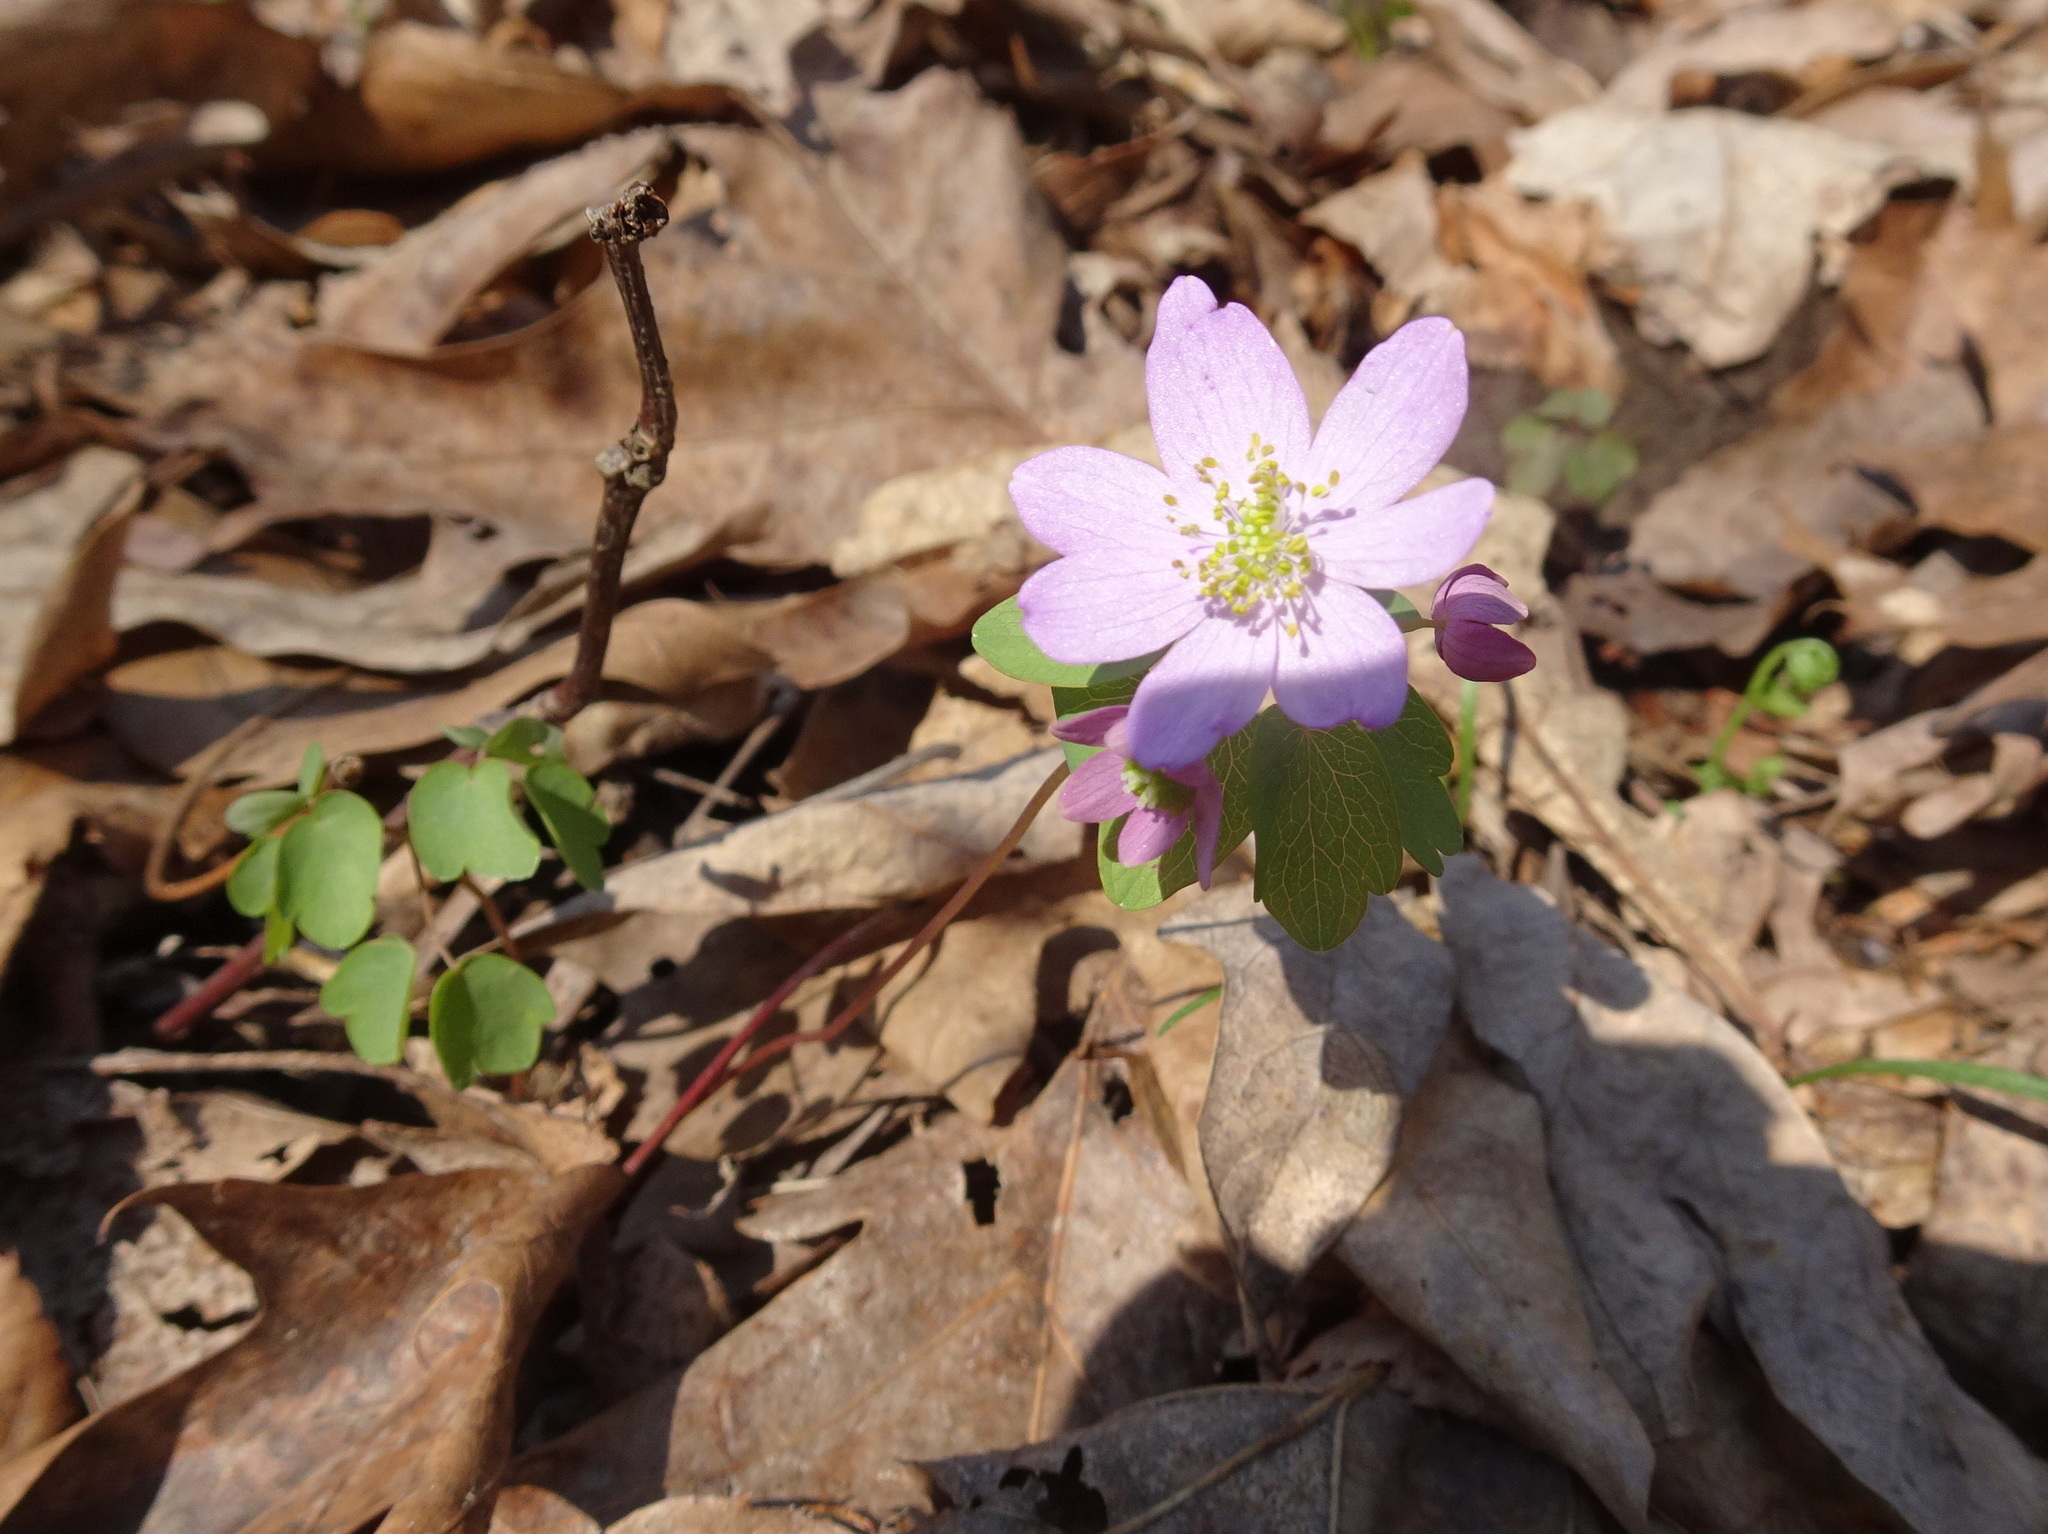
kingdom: Plantae
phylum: Tracheophyta
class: Magnoliopsida
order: Ranunculales
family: Ranunculaceae
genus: Thalictrum
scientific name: Thalictrum thalictroides
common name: Rue-anemone
